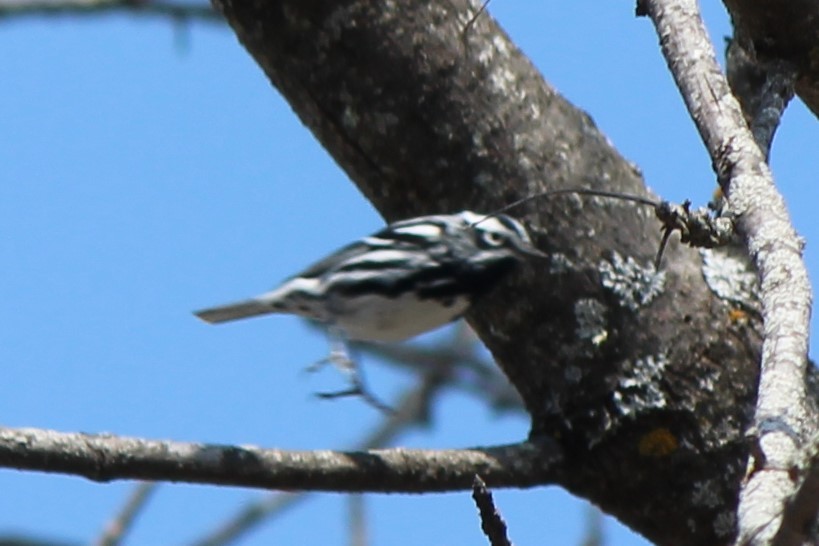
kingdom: Animalia
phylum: Chordata
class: Aves
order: Passeriformes
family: Parulidae
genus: Mniotilta
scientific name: Mniotilta varia
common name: Black-and-white warbler
